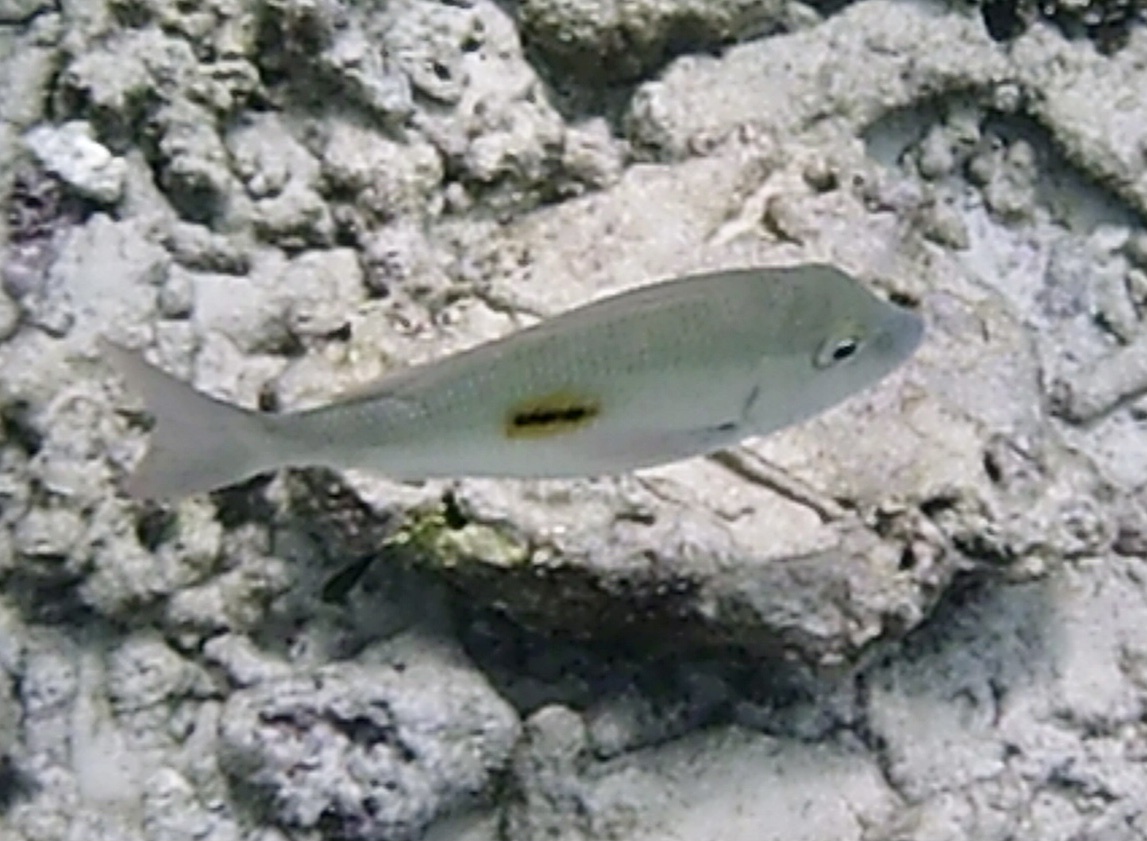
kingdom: Animalia
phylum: Chordata
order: Perciformes
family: Lethrinidae
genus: Lethrinus
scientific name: Lethrinus harak
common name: Blackspot emperor
